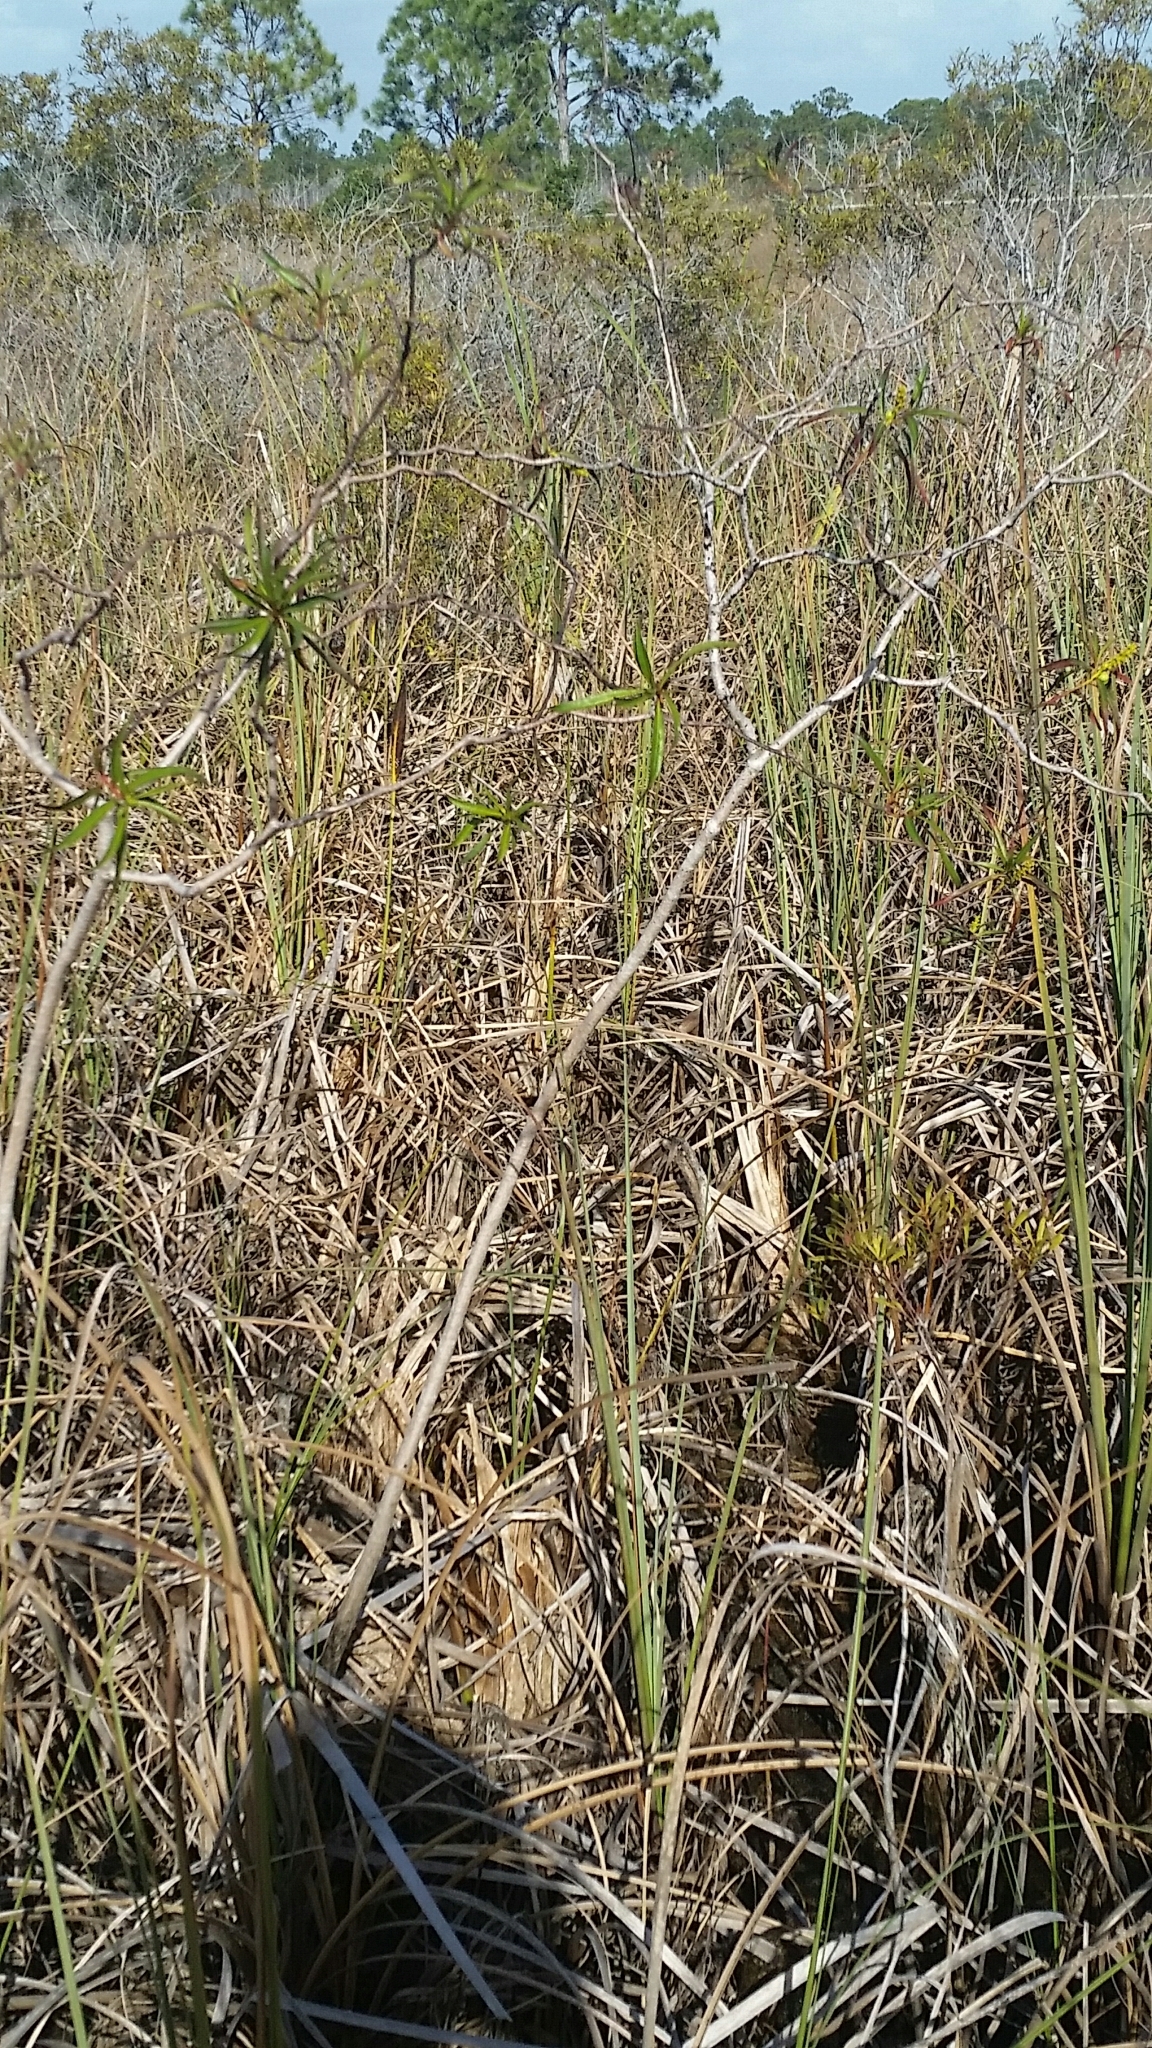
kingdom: Plantae
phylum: Tracheophyta
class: Magnoliopsida
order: Malpighiales
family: Euphorbiaceae
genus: Stillingia
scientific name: Stillingia aquatica
